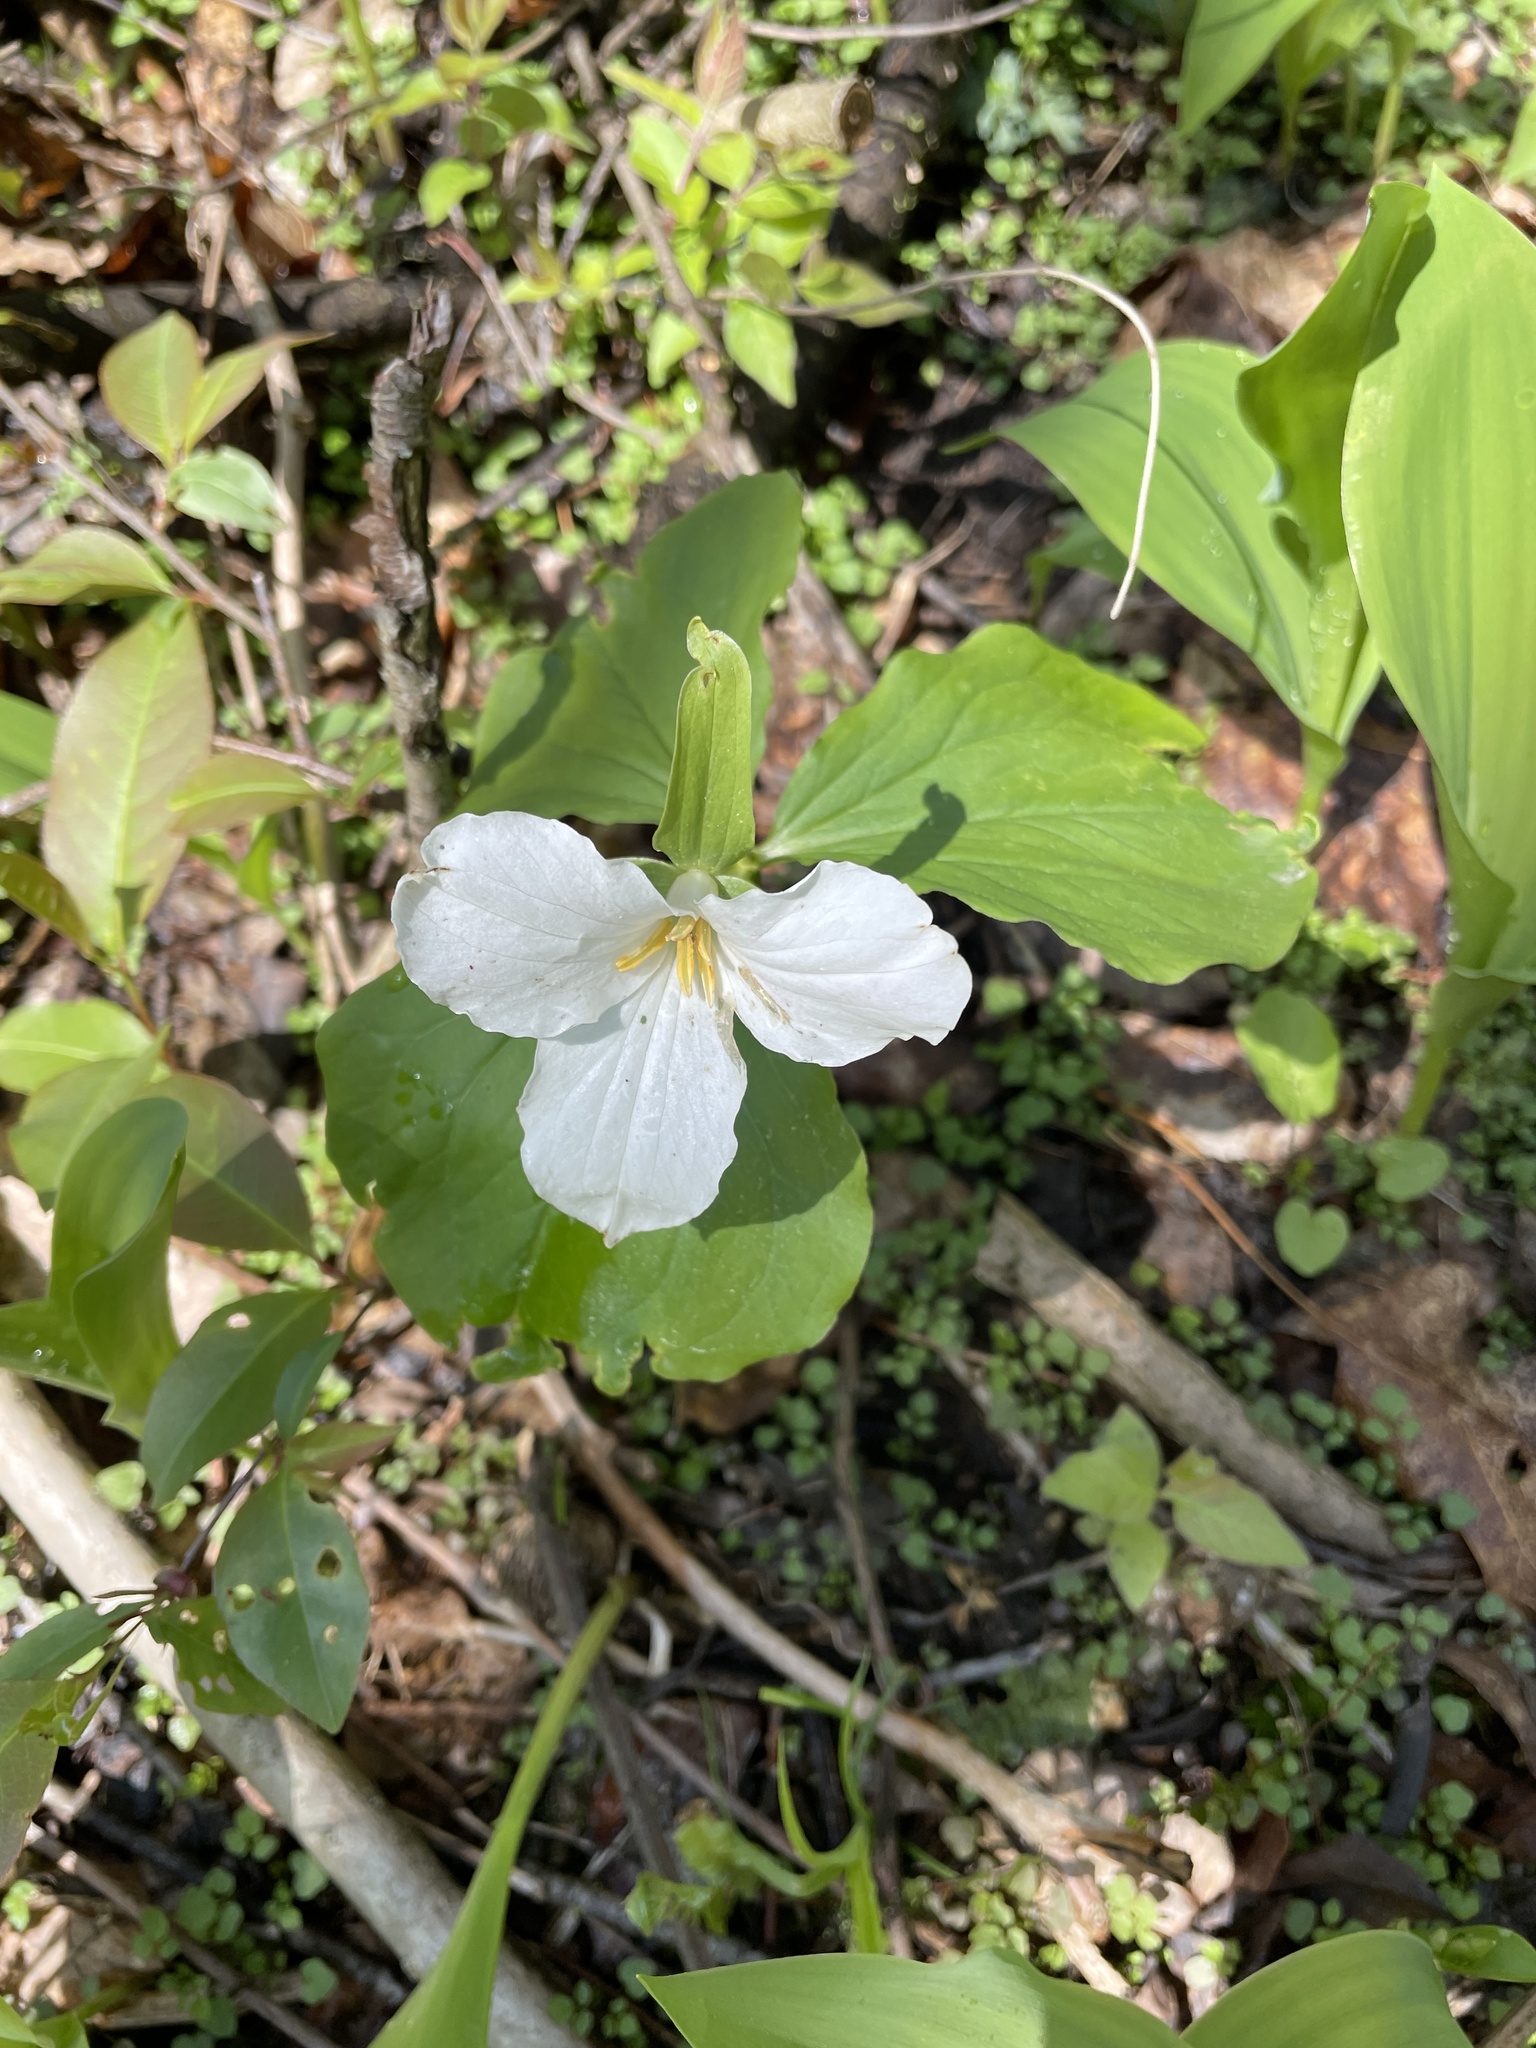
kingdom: Plantae
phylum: Tracheophyta
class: Liliopsida
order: Liliales
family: Melanthiaceae
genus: Trillium
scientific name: Trillium grandiflorum
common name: Great white trillium
